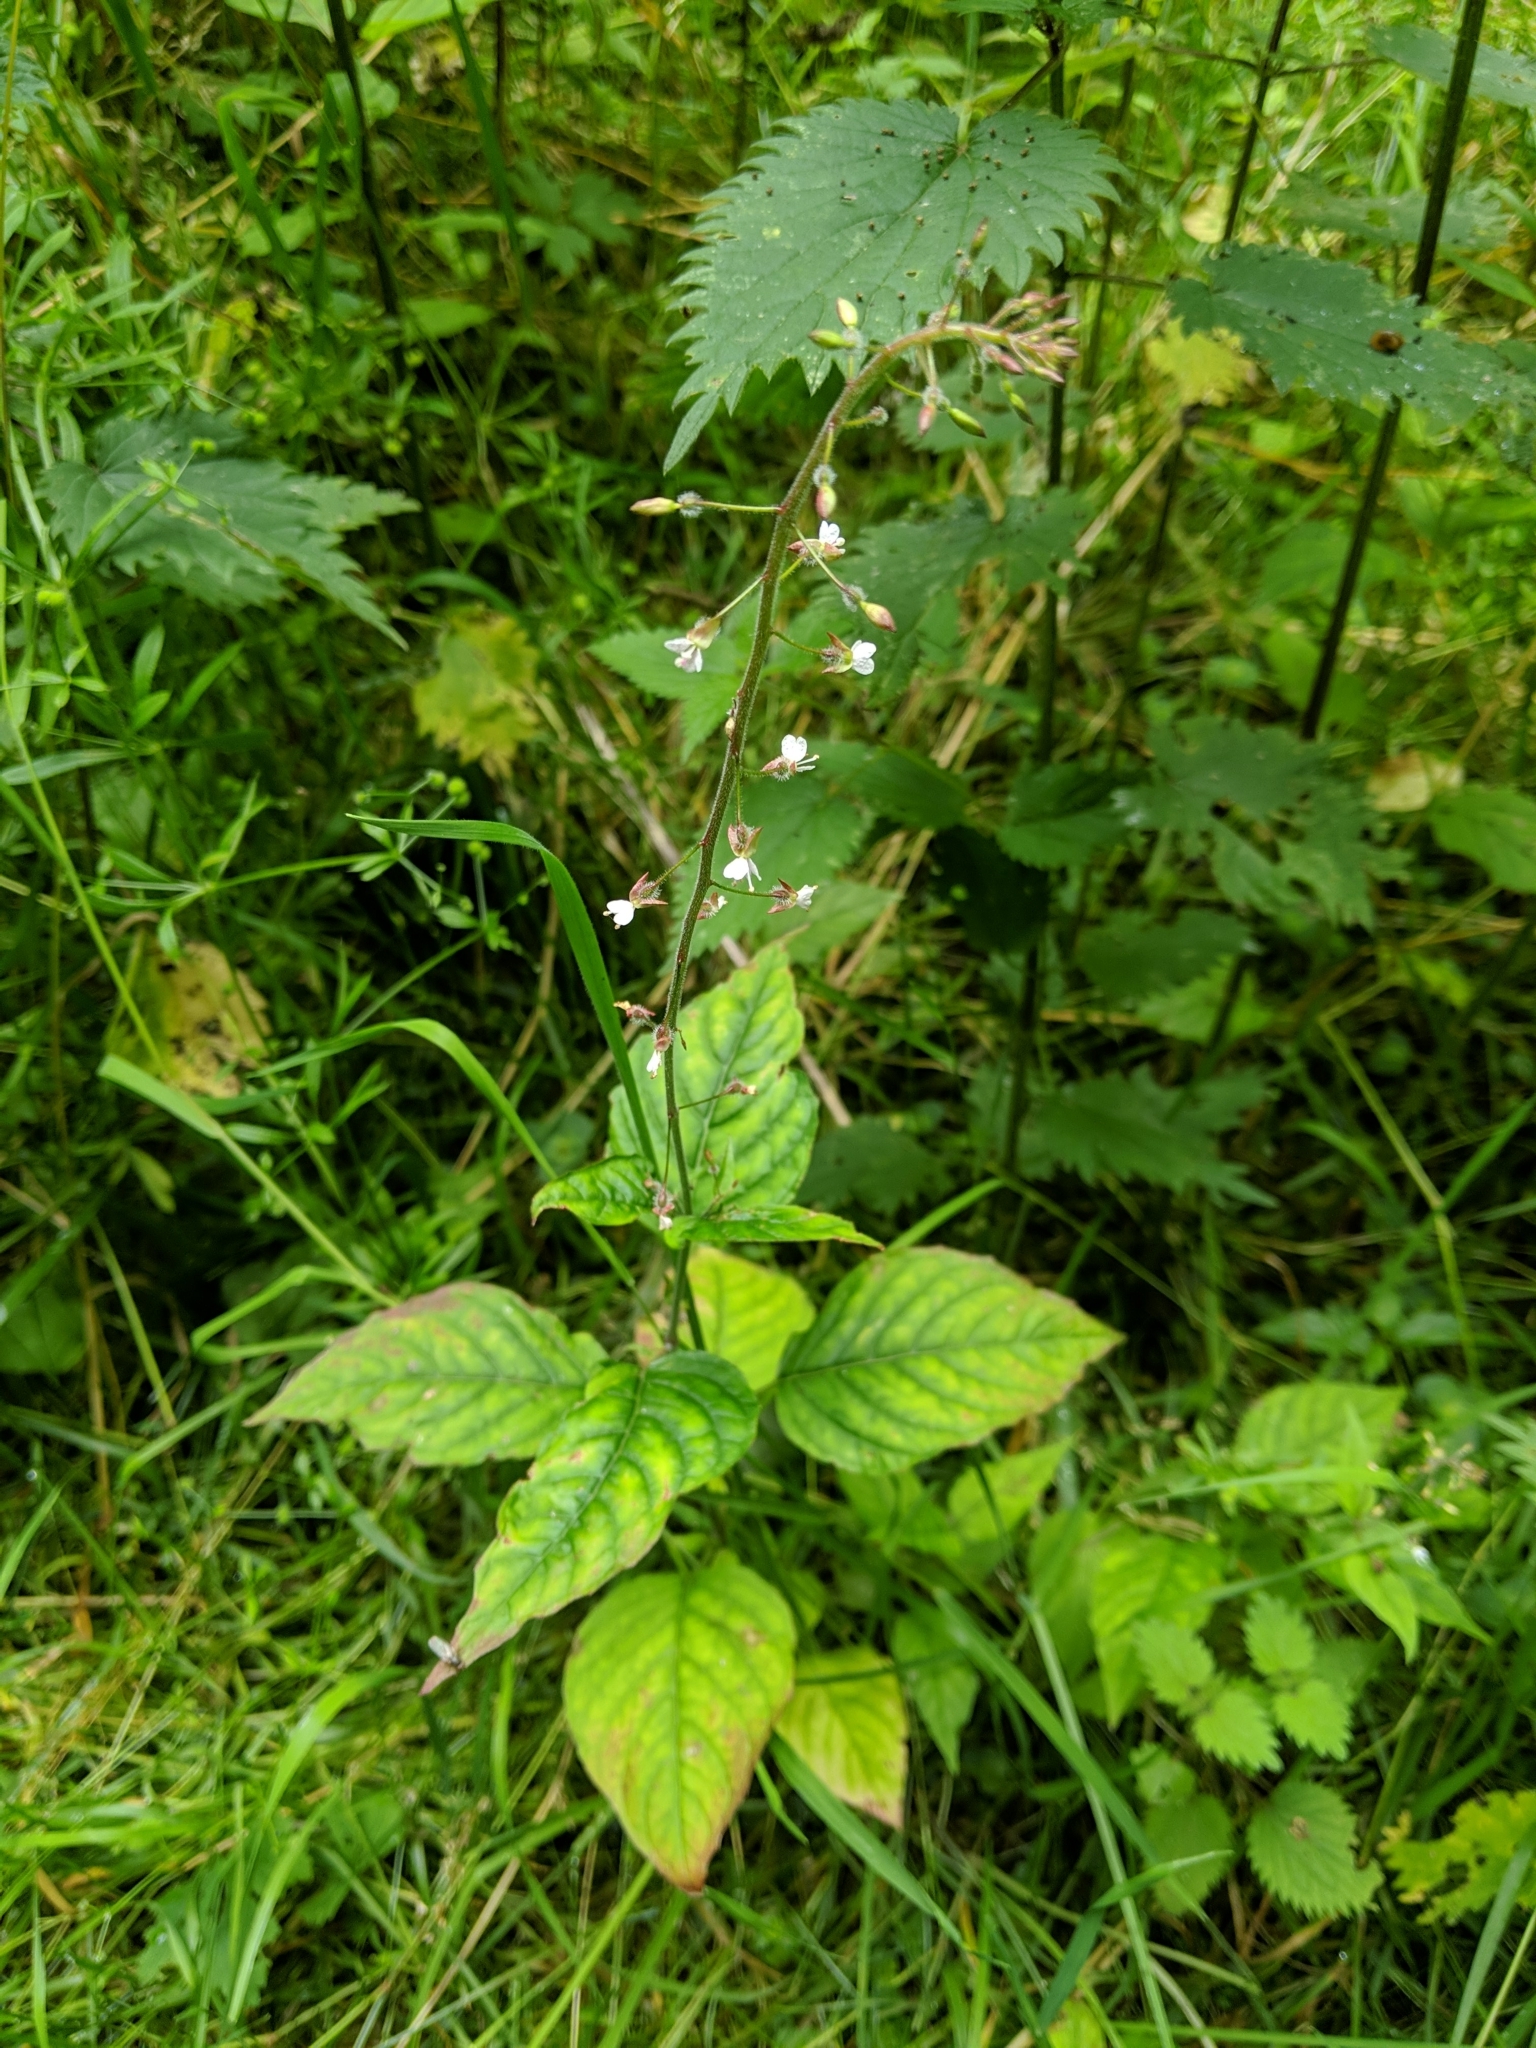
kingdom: Plantae
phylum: Tracheophyta
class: Magnoliopsida
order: Myrtales
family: Onagraceae
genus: Circaea
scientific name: Circaea lutetiana
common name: Enchanter's-nightshade
